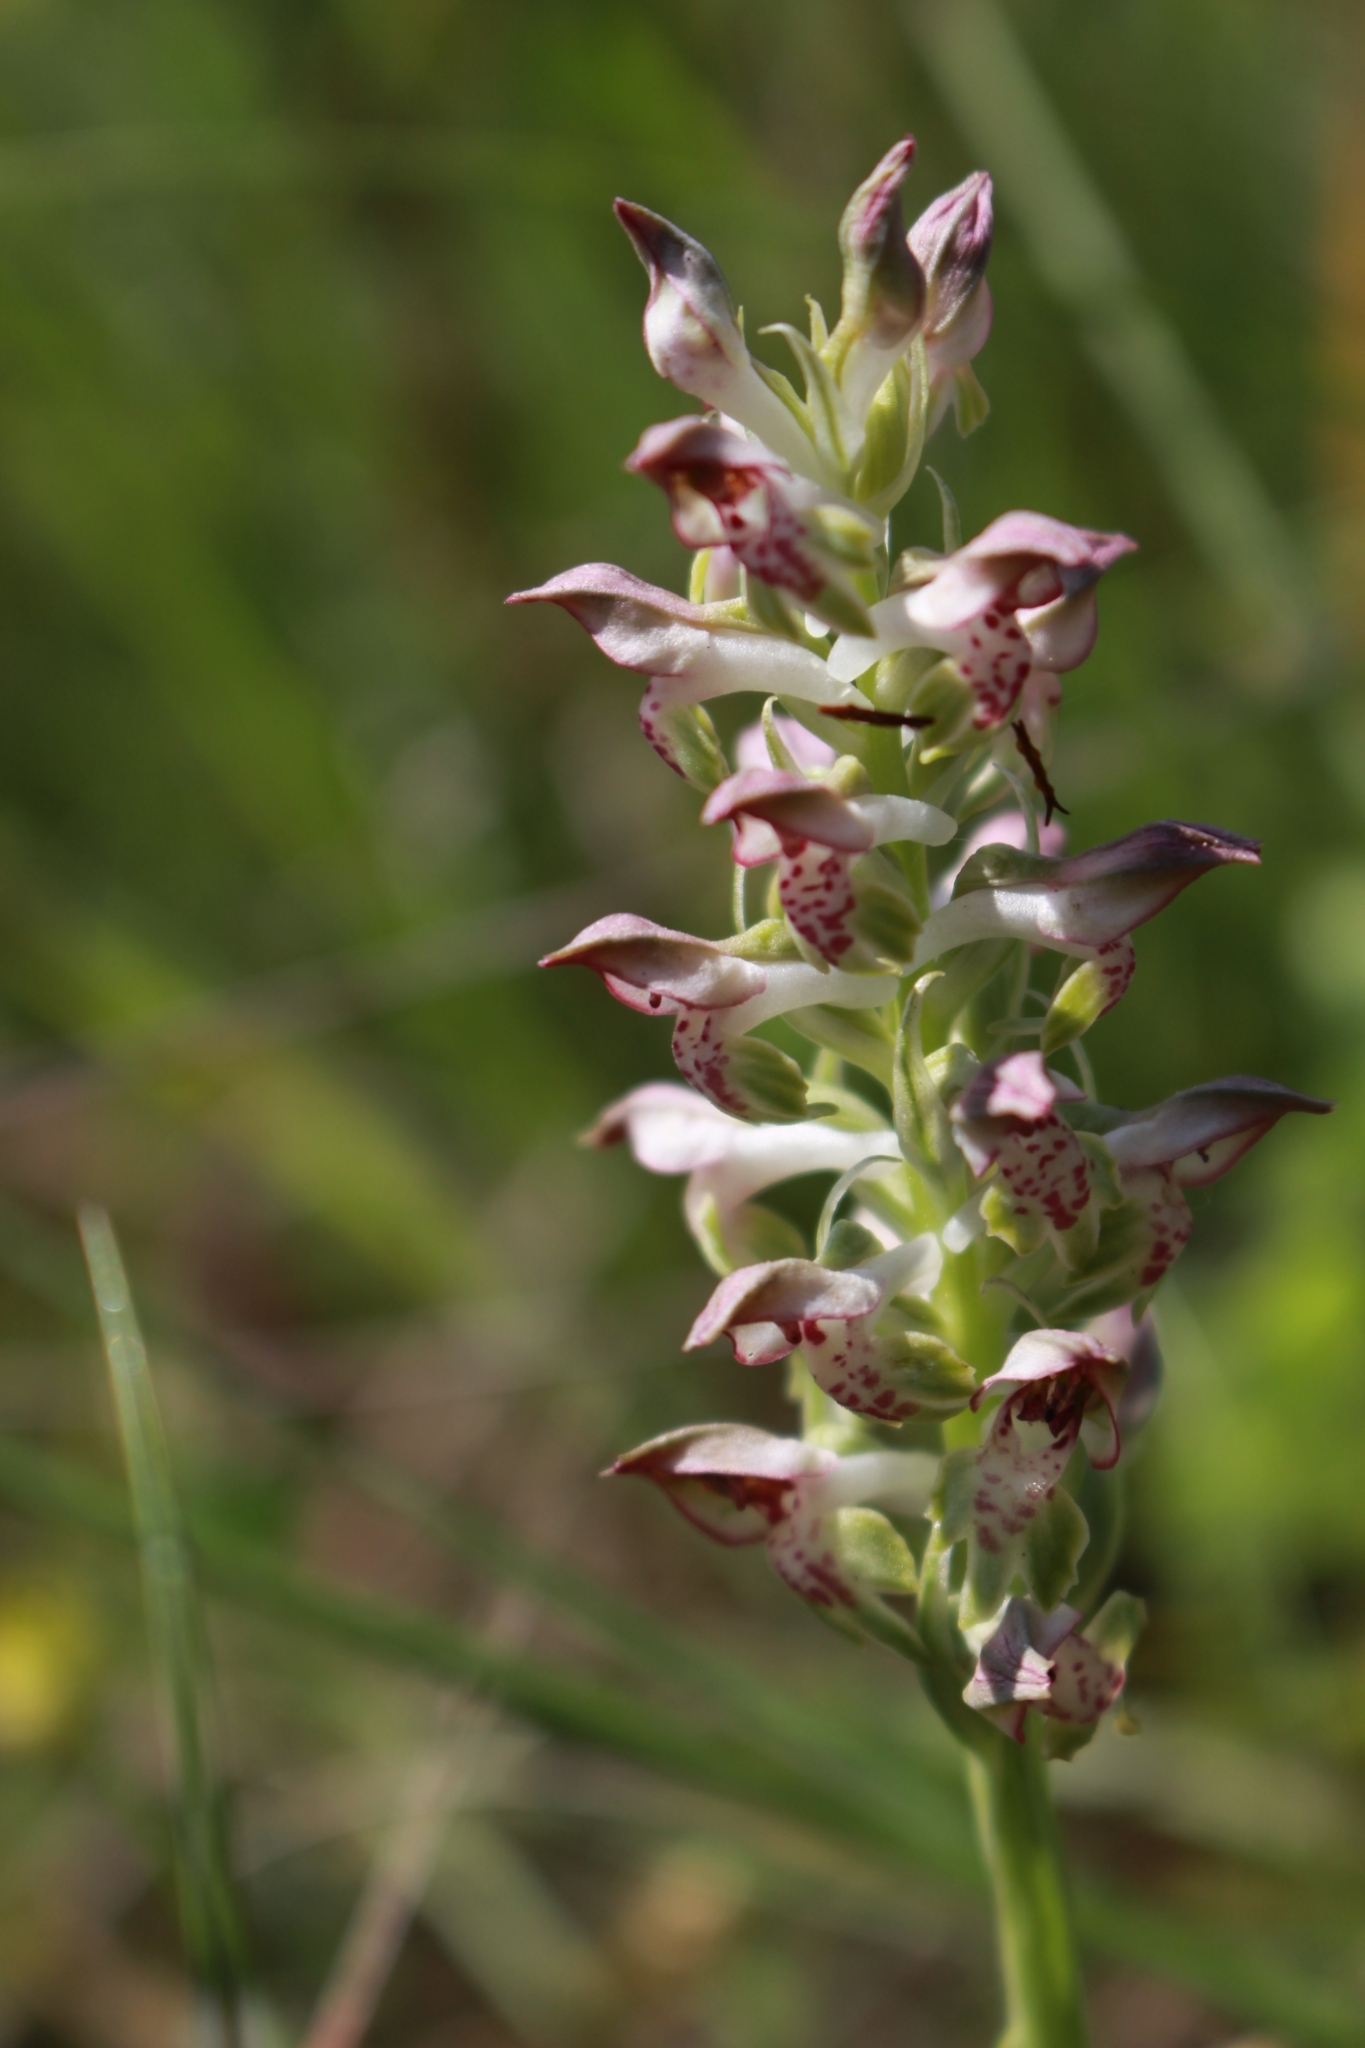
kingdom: Plantae
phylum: Tracheophyta
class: Liliopsida
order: Asparagales
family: Orchidaceae
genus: Anacamptis
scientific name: Anacamptis coriophora
